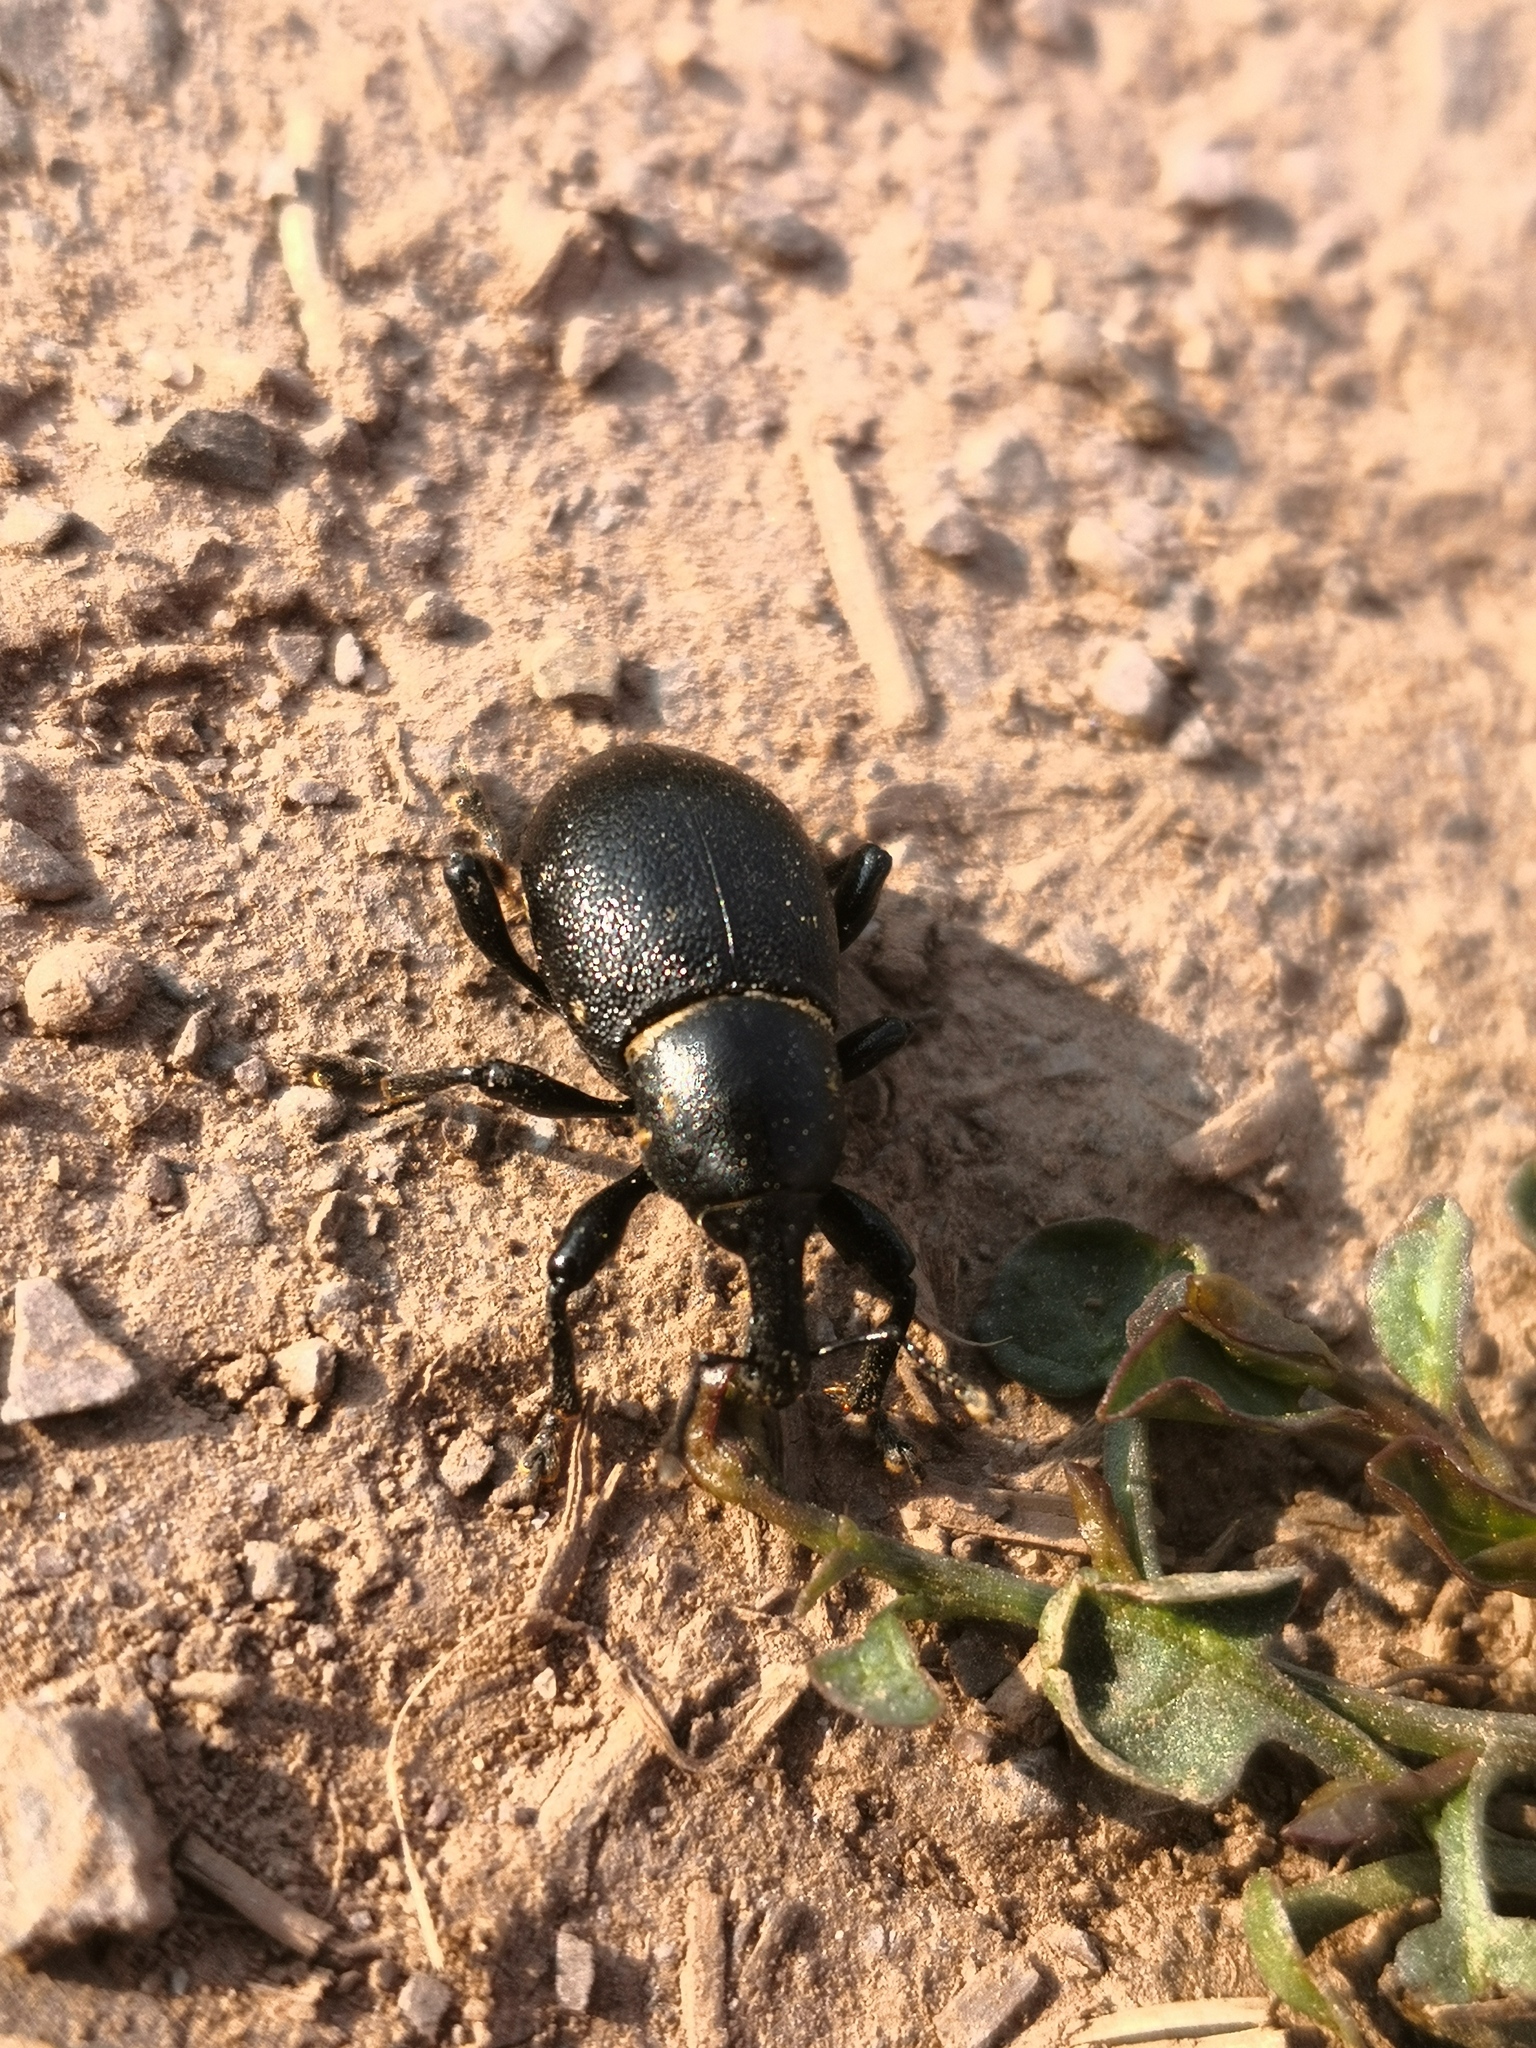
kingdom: Animalia
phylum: Arthropoda
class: Insecta
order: Coleoptera
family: Curculionidae
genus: Liparus
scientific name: Liparus coronatus
